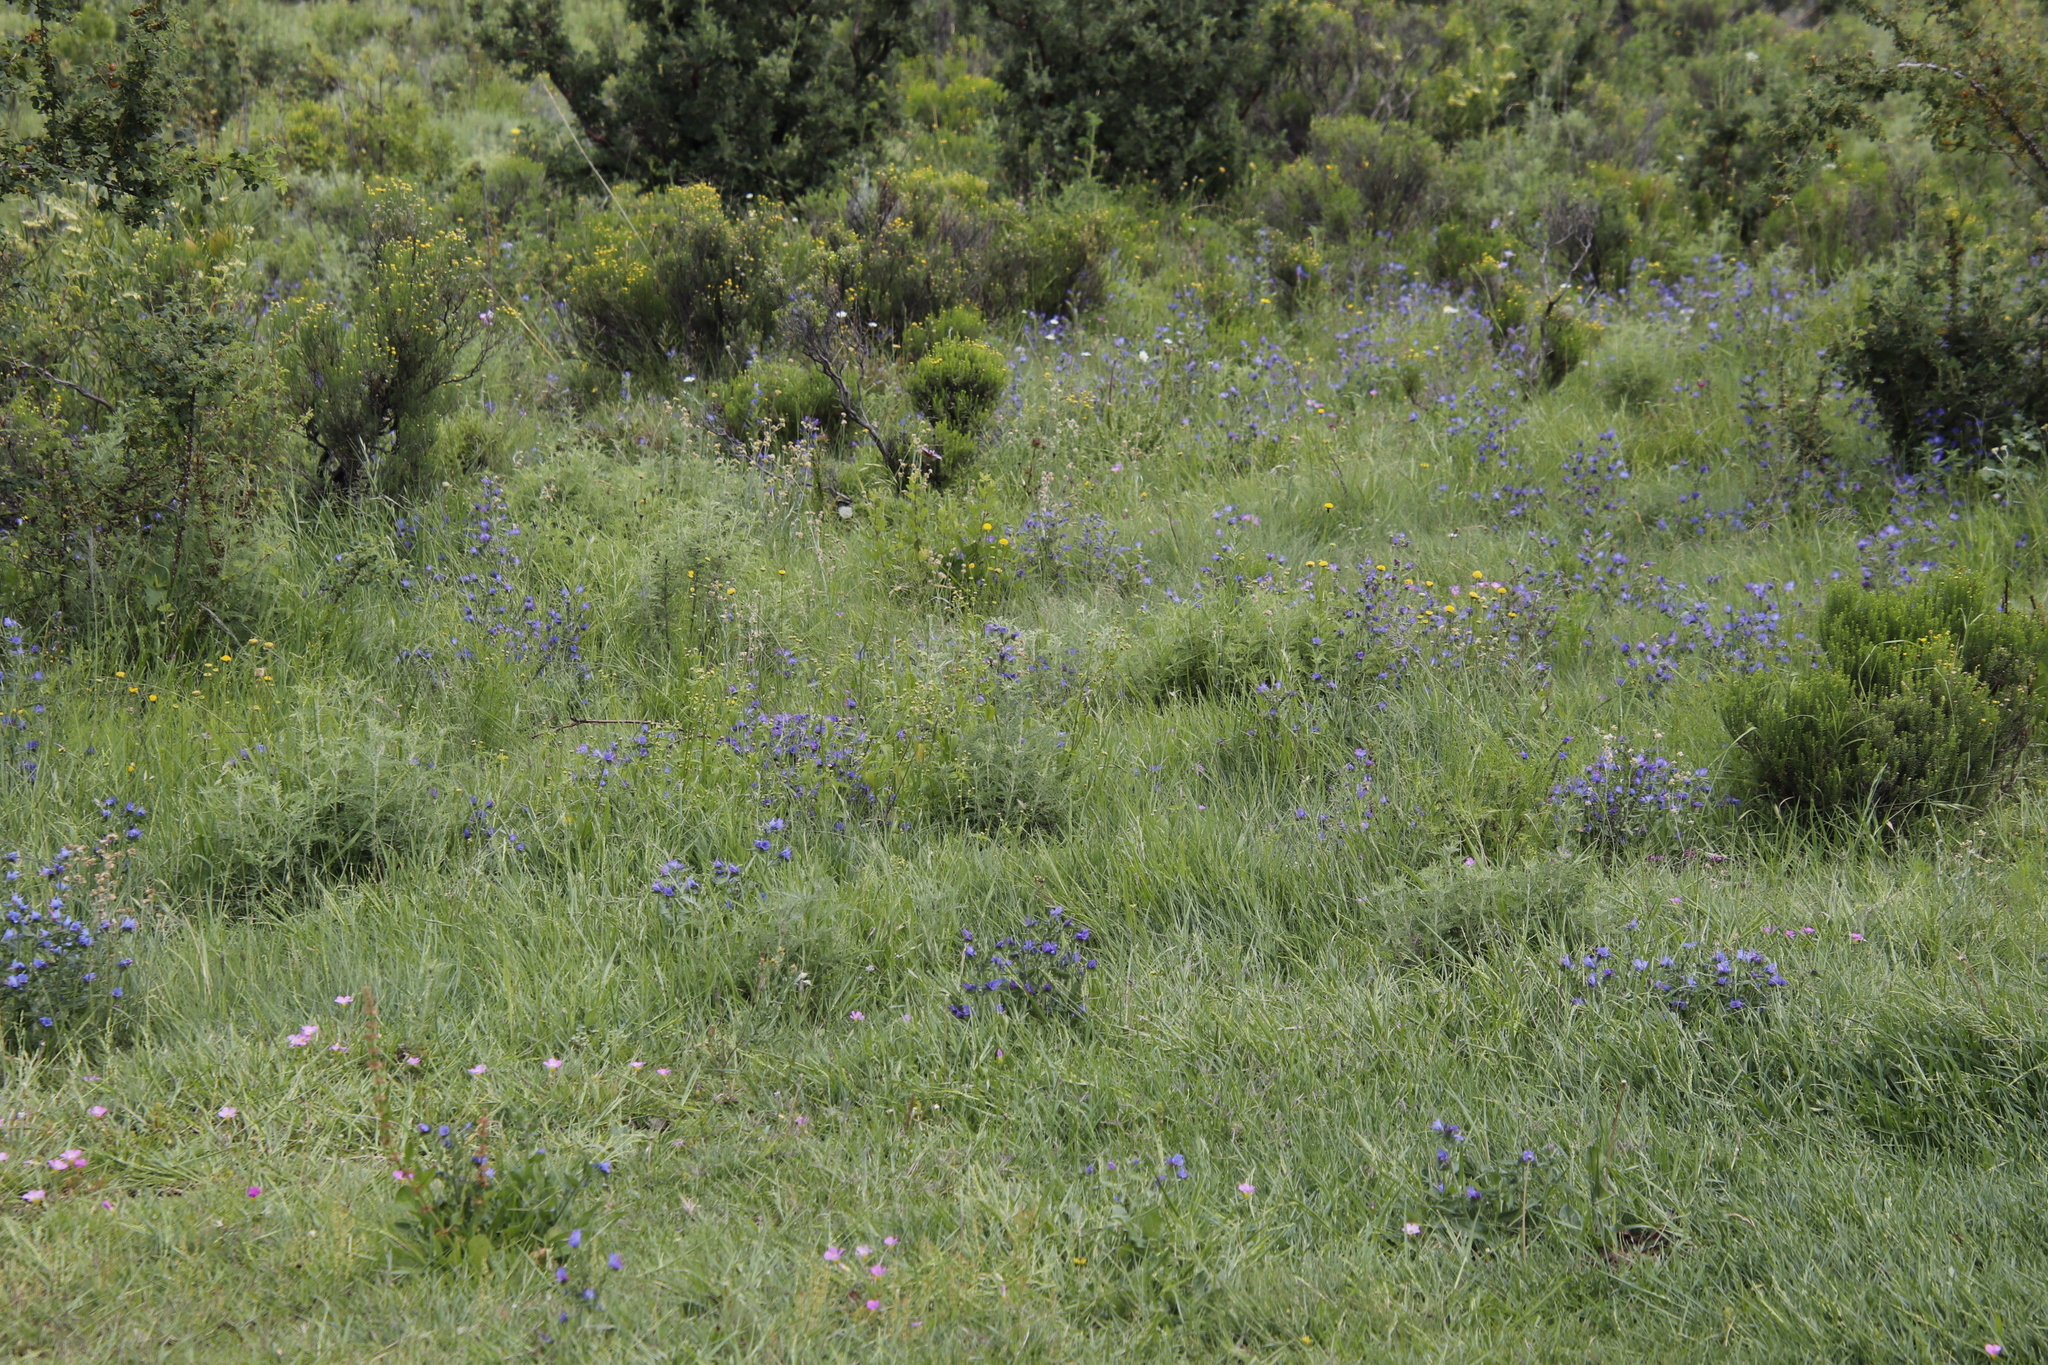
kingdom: Plantae
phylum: Tracheophyta
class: Magnoliopsida
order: Boraginales
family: Boraginaceae
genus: Echium
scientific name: Echium vulgare
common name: Common viper's bugloss
